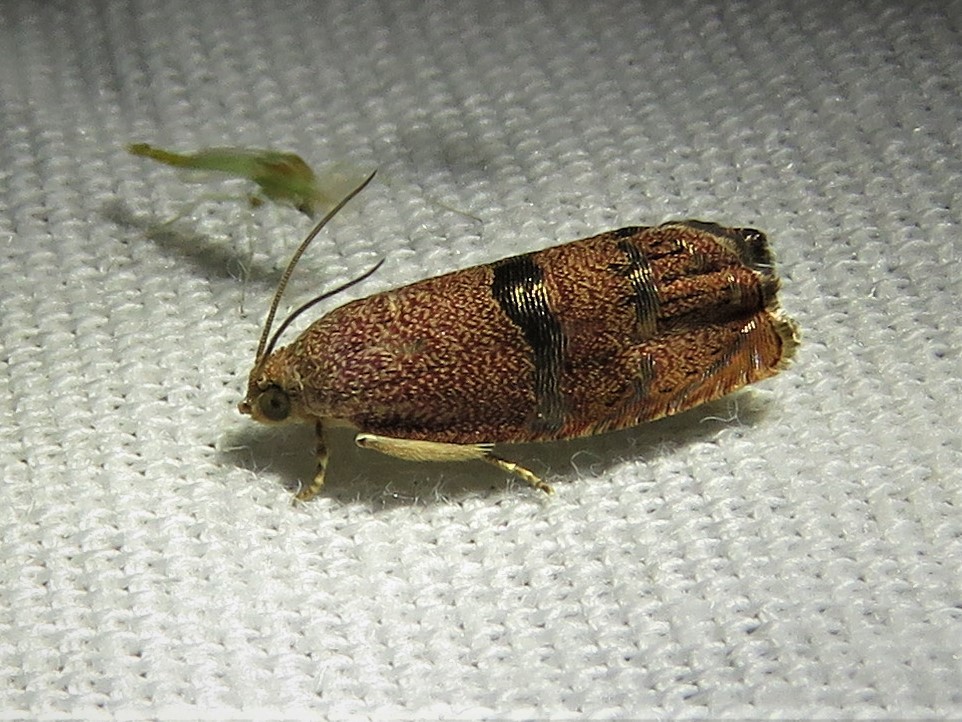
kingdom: Animalia
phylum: Arthropoda
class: Insecta
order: Lepidoptera
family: Tortricidae
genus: Cydia
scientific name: Cydia latiferreana
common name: Filbertworm moth
